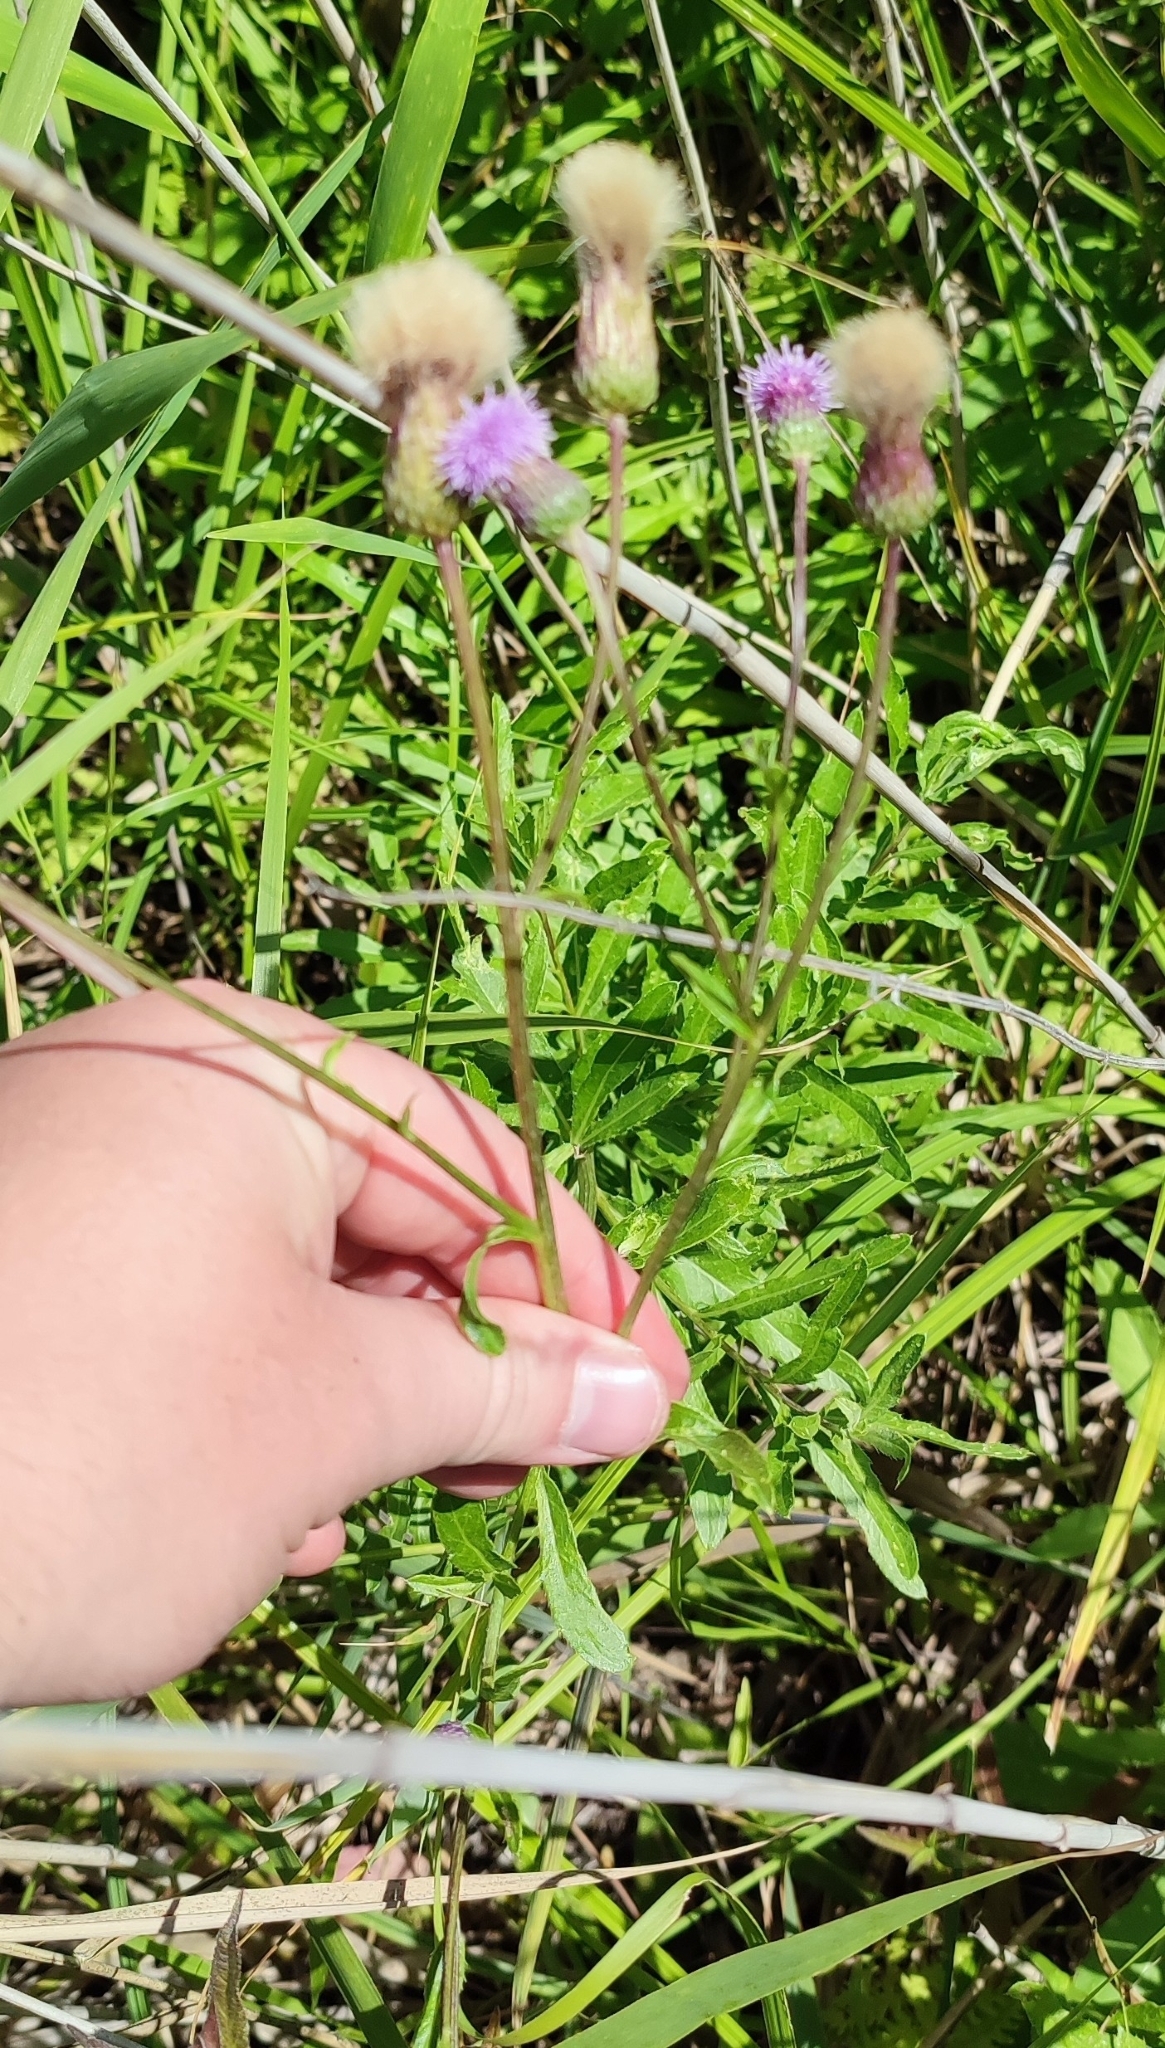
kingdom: Plantae
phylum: Tracheophyta
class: Magnoliopsida
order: Asterales
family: Asteraceae
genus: Cirsium
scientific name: Cirsium arvense
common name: Creeping thistle
